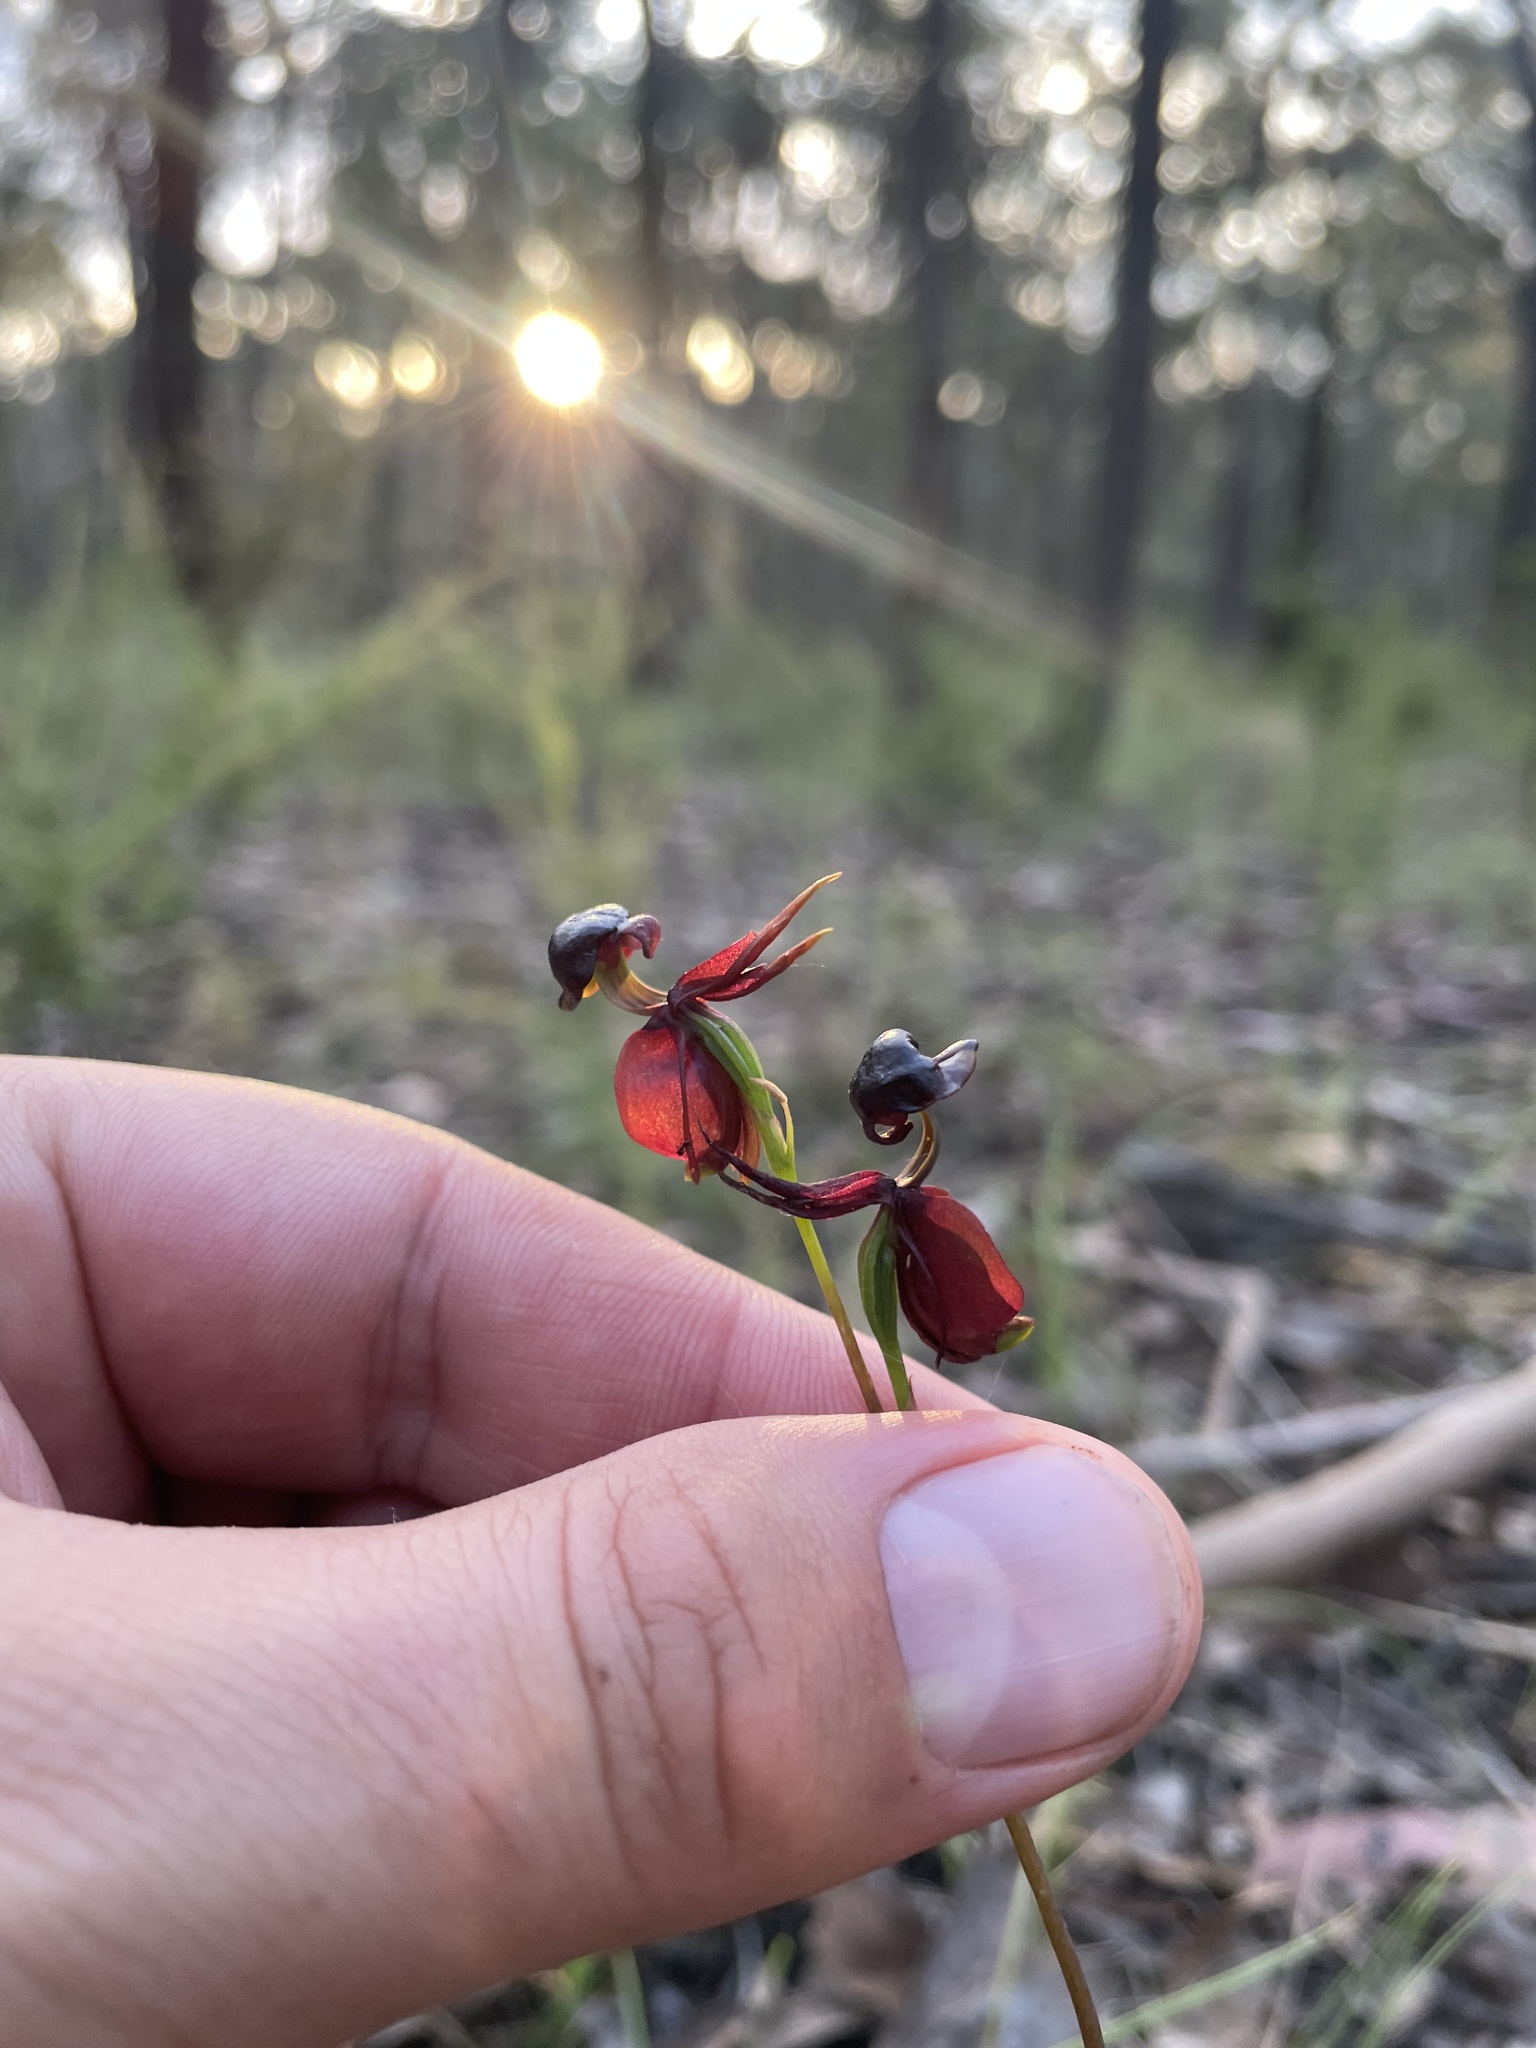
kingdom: Plantae
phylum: Tracheophyta
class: Liliopsida
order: Asparagales
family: Orchidaceae
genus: Caleana
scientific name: Caleana major
